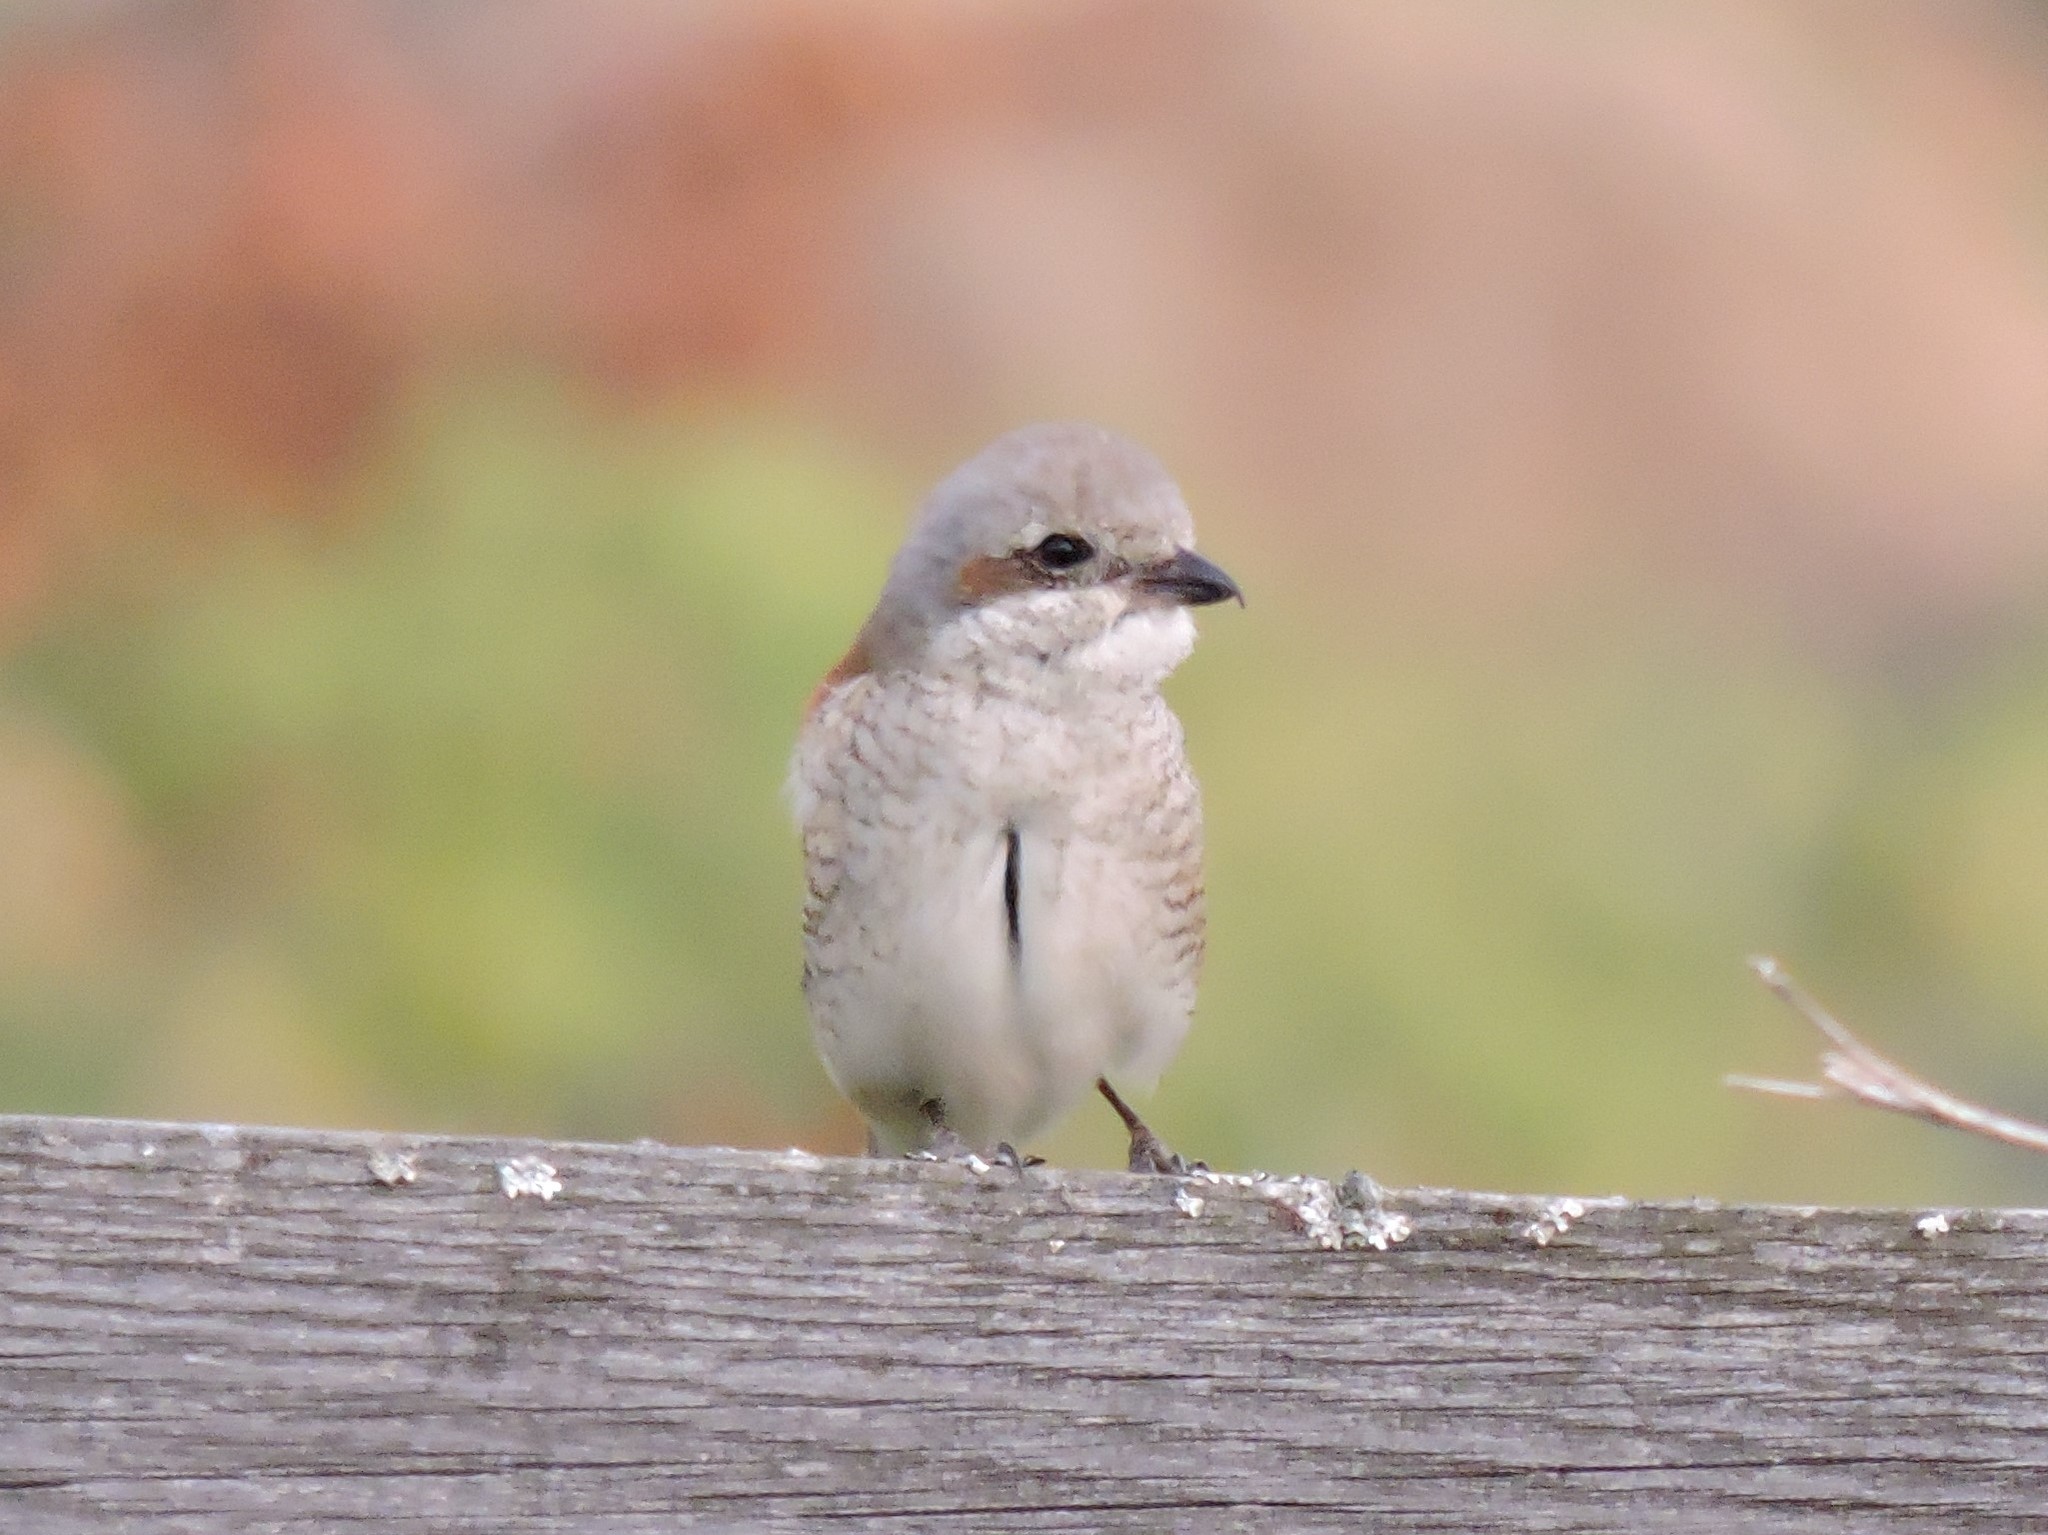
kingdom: Animalia
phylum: Chordata
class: Aves
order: Passeriformes
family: Laniidae
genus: Lanius
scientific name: Lanius collurio
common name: Red-backed shrike
